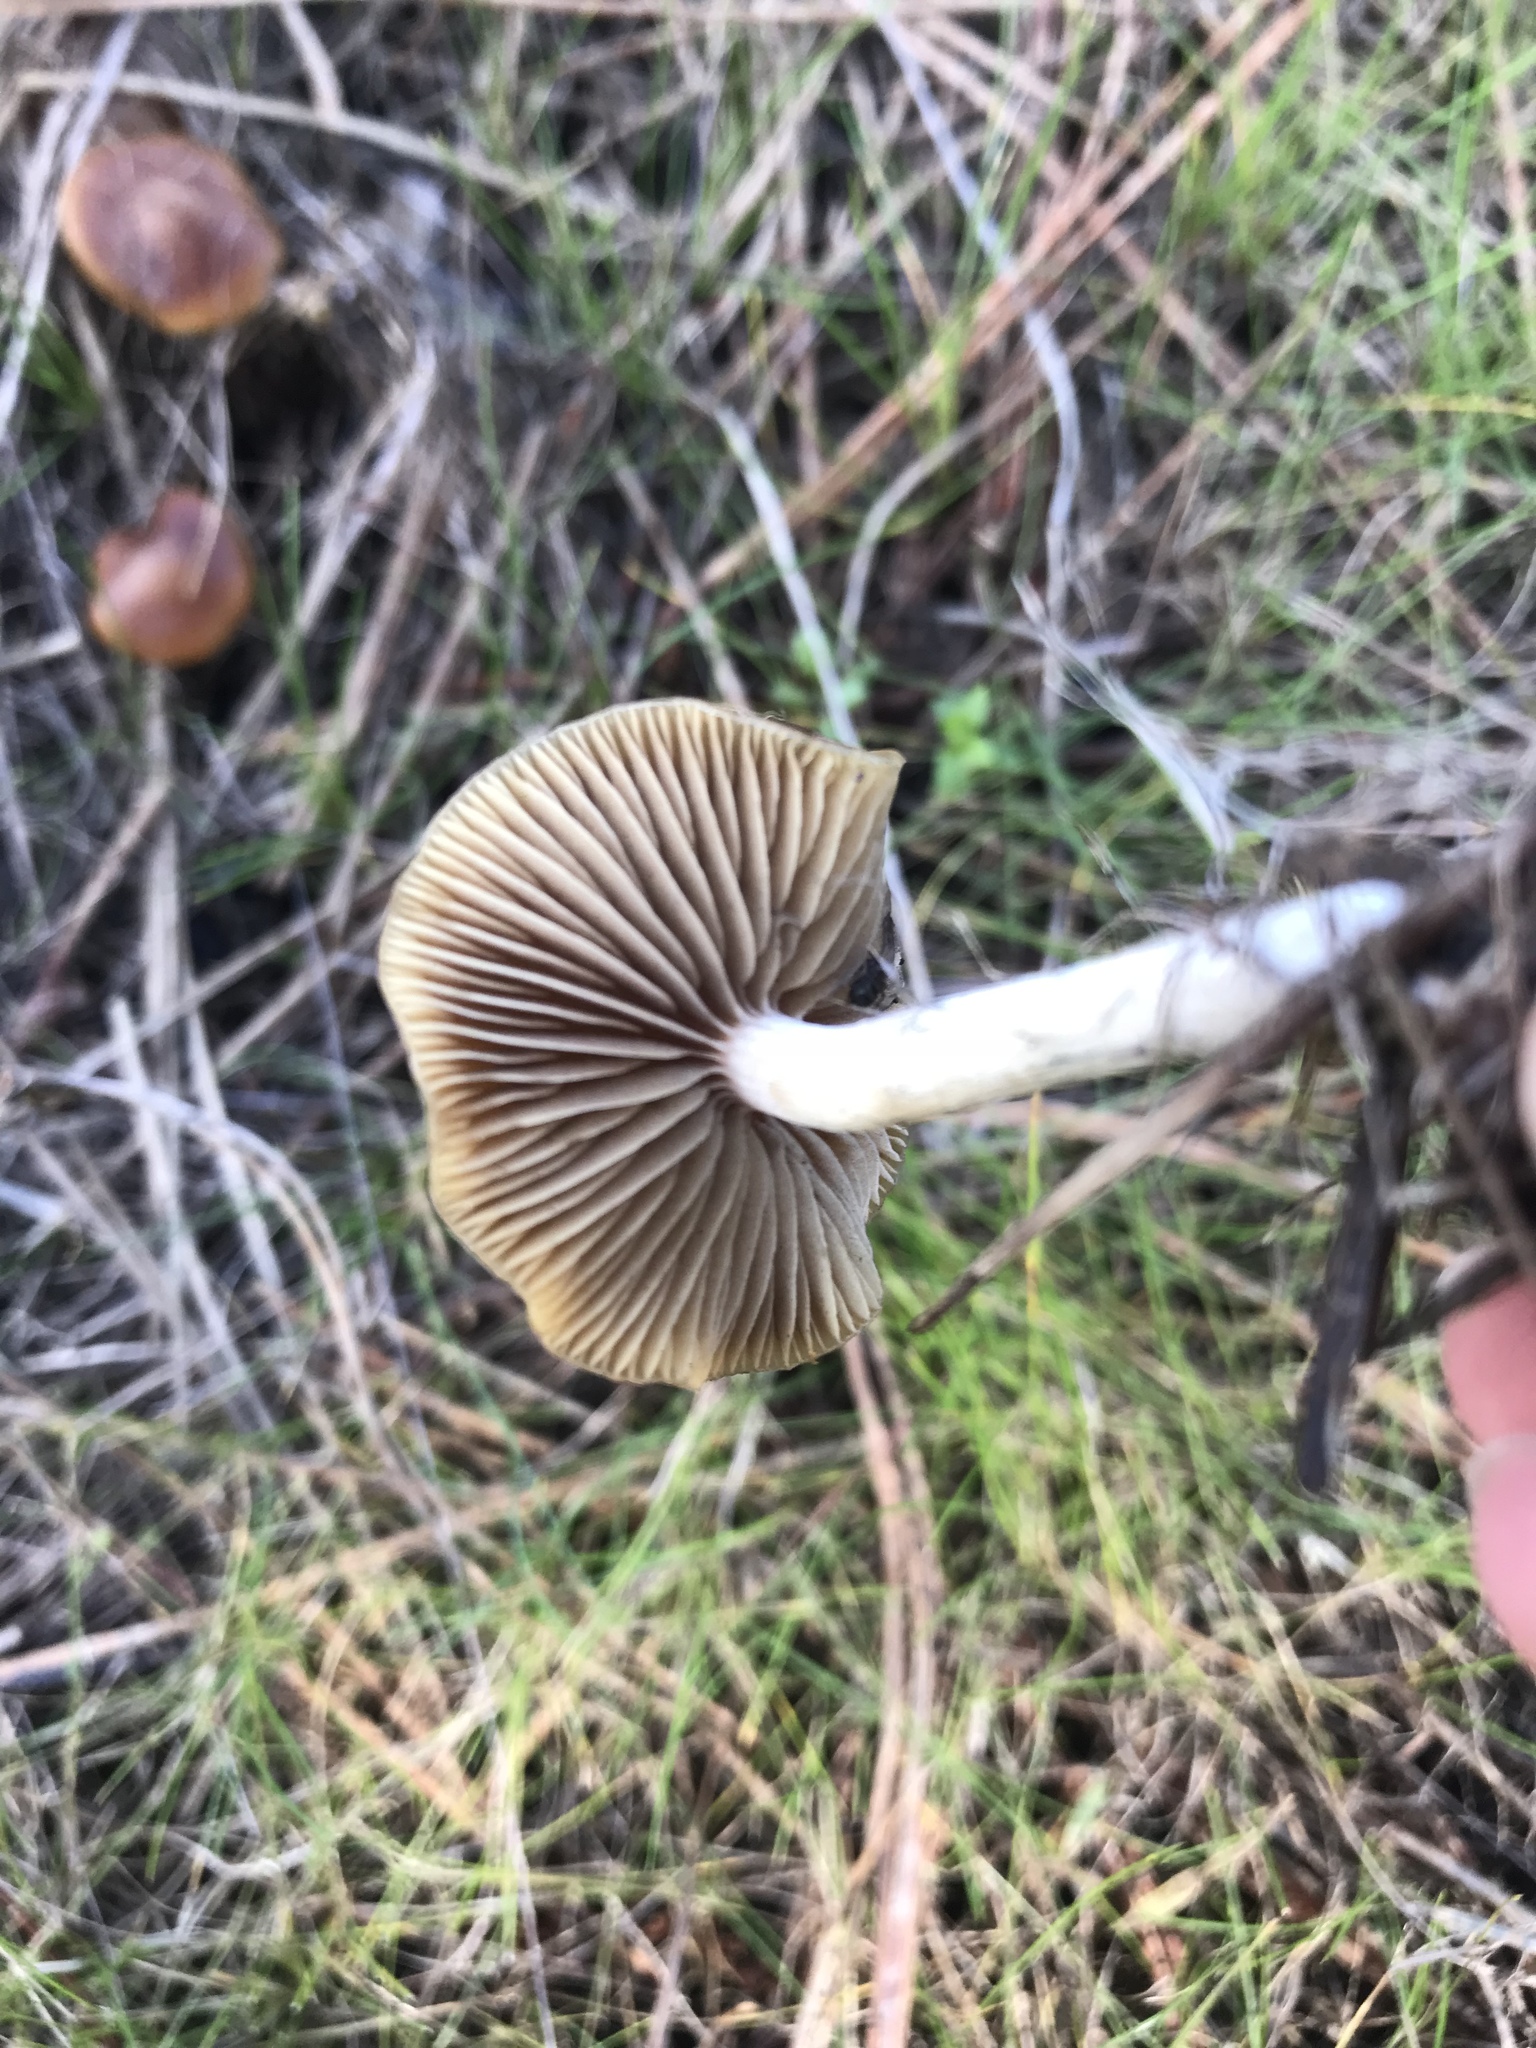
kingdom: Fungi
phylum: Basidiomycota
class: Agaricomycetes
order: Agaricales
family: Hymenogastraceae
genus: Psilocybe
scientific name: Psilocybe cyanescens
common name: Blueleg brownie
